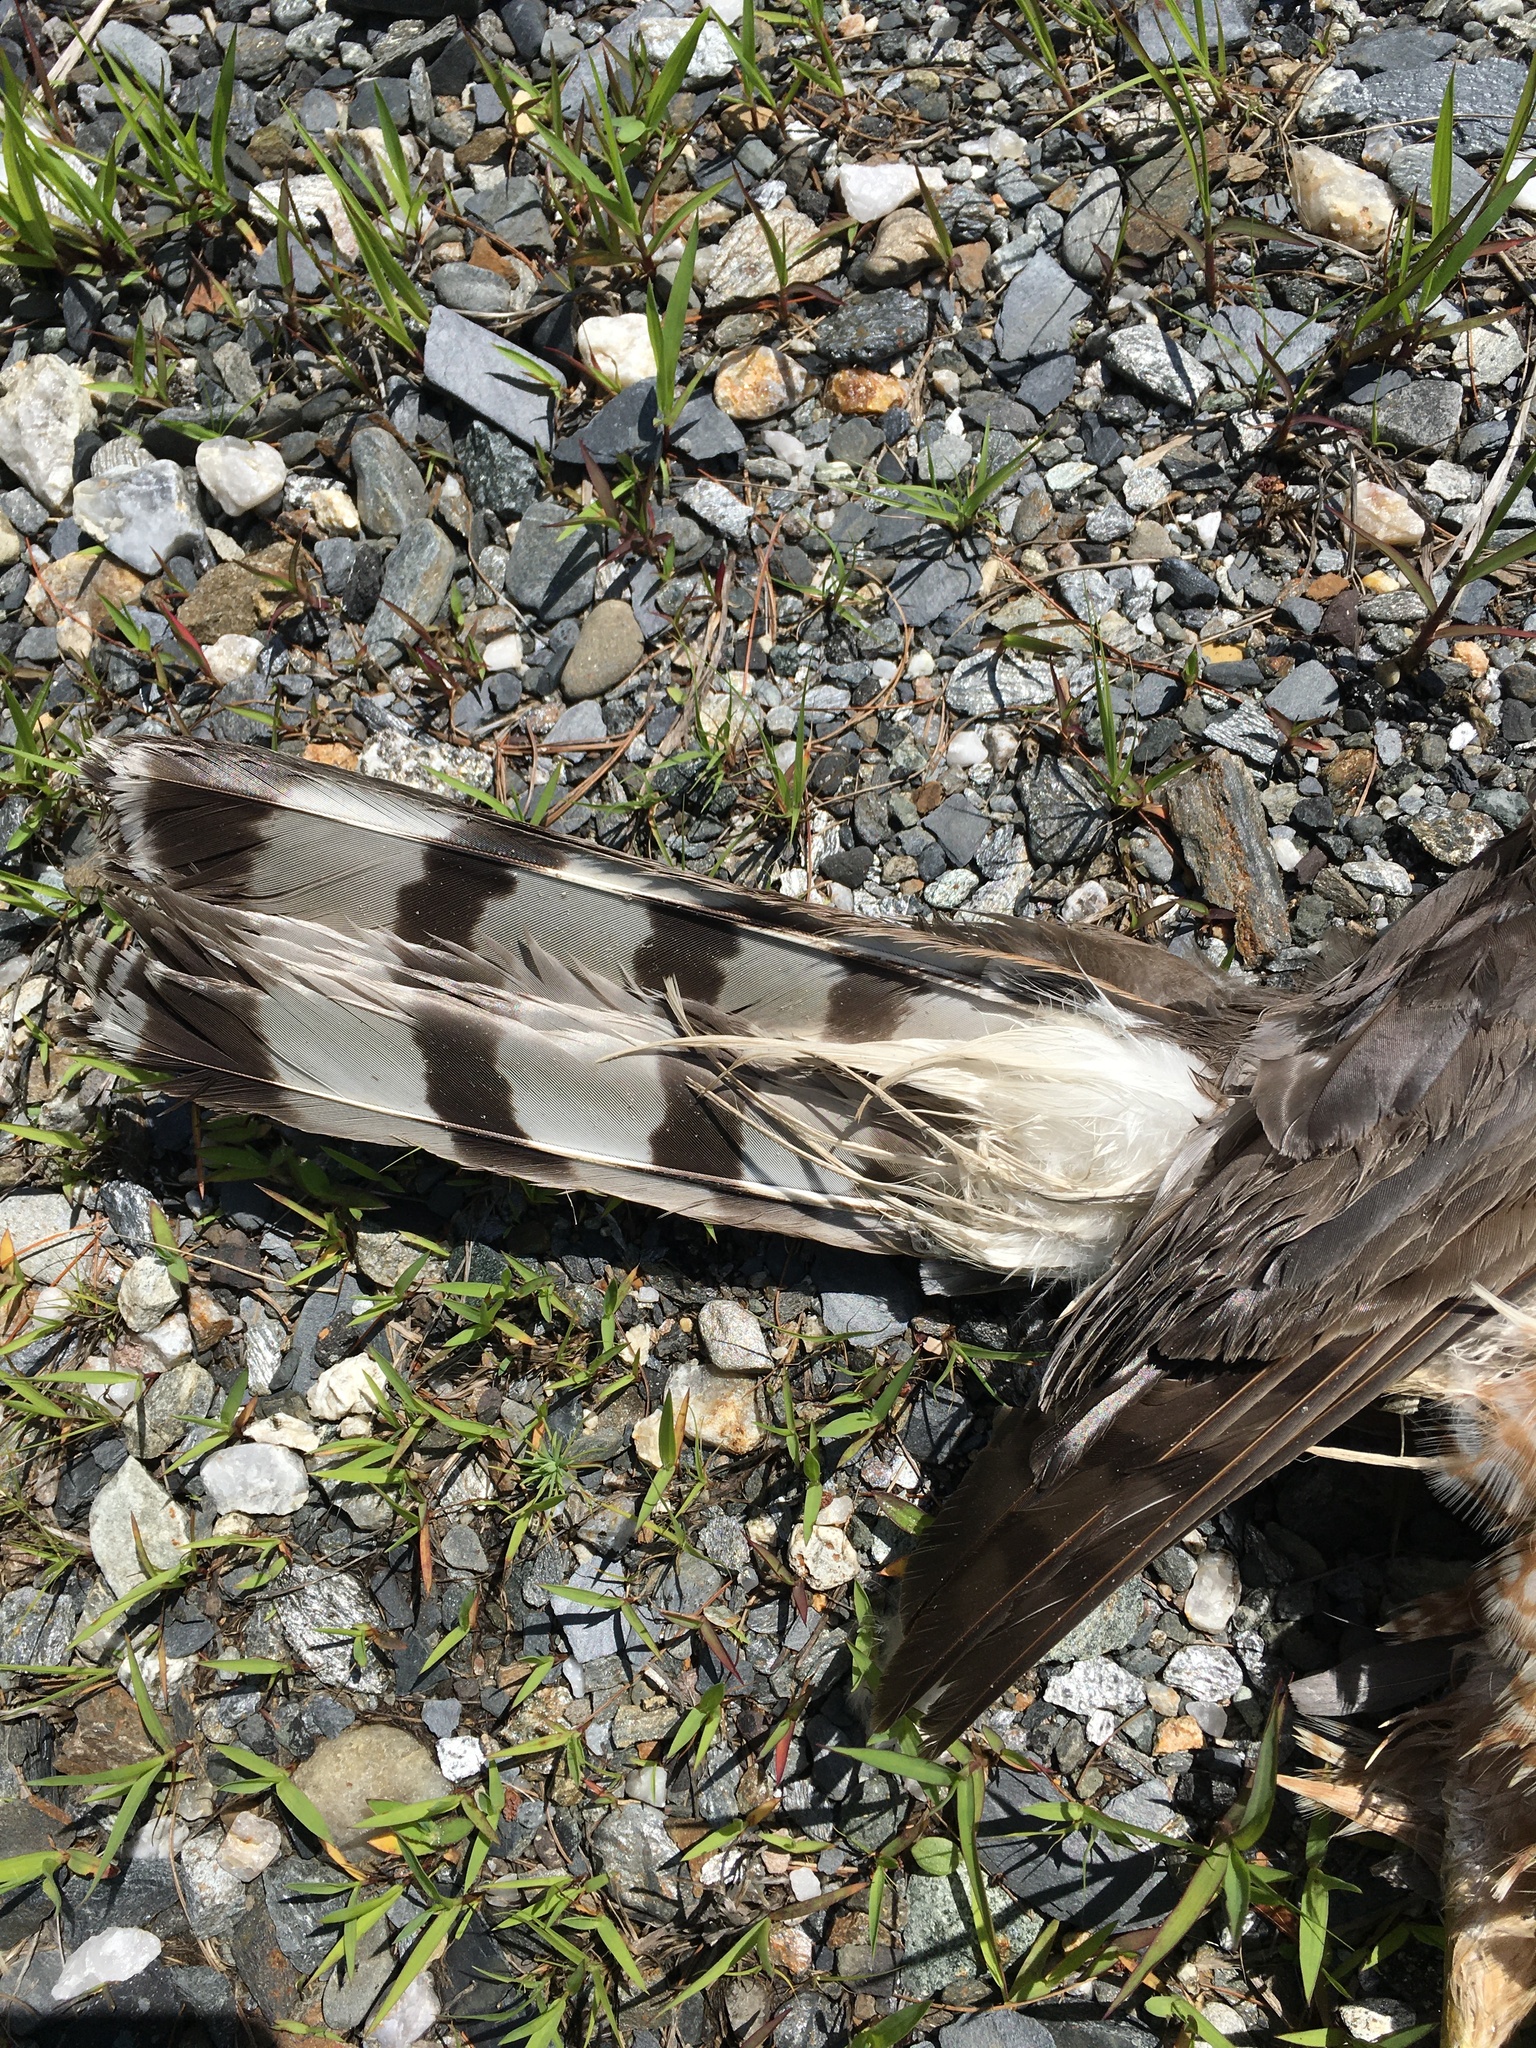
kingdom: Animalia
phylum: Chordata
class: Aves
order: Accipitriformes
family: Accipitridae
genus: Accipiter
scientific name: Accipiter cooperii
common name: Cooper's hawk
